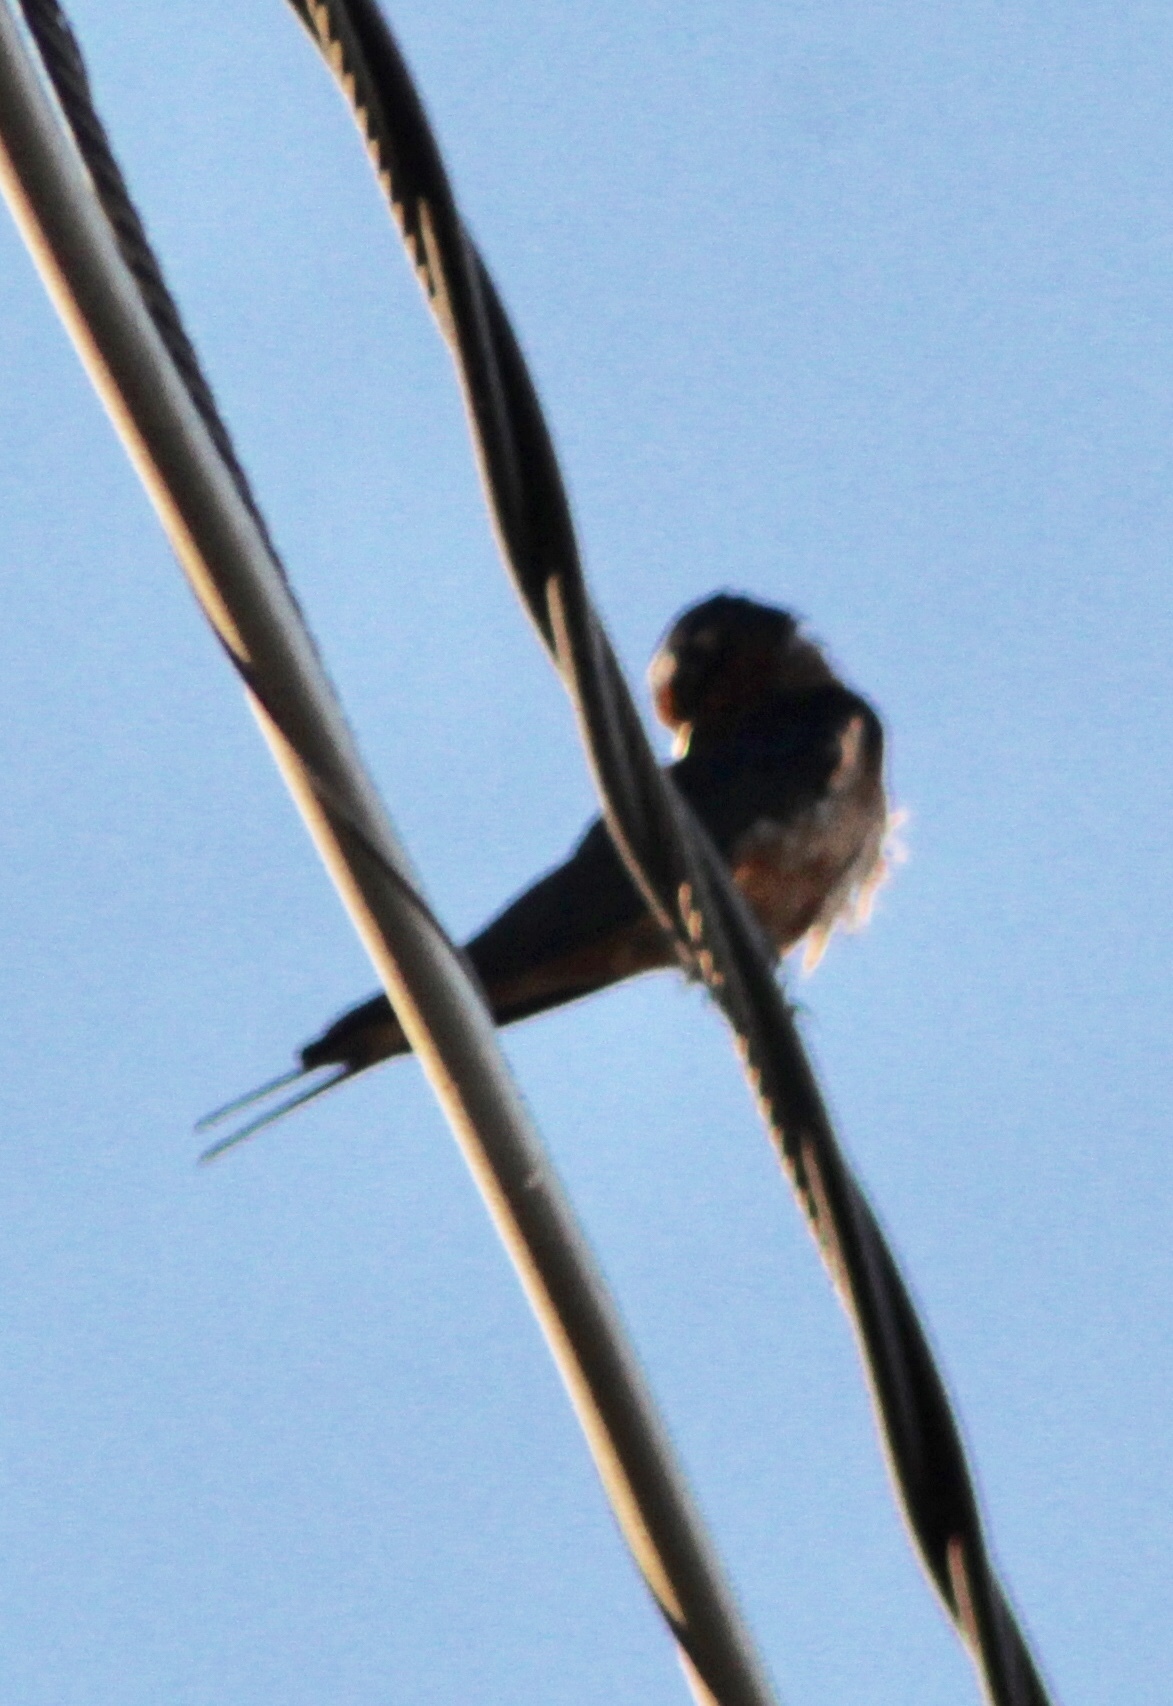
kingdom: Animalia
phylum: Chordata
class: Aves
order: Passeriformes
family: Hirundinidae
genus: Hirundo
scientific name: Hirundo rustica
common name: Barn swallow
